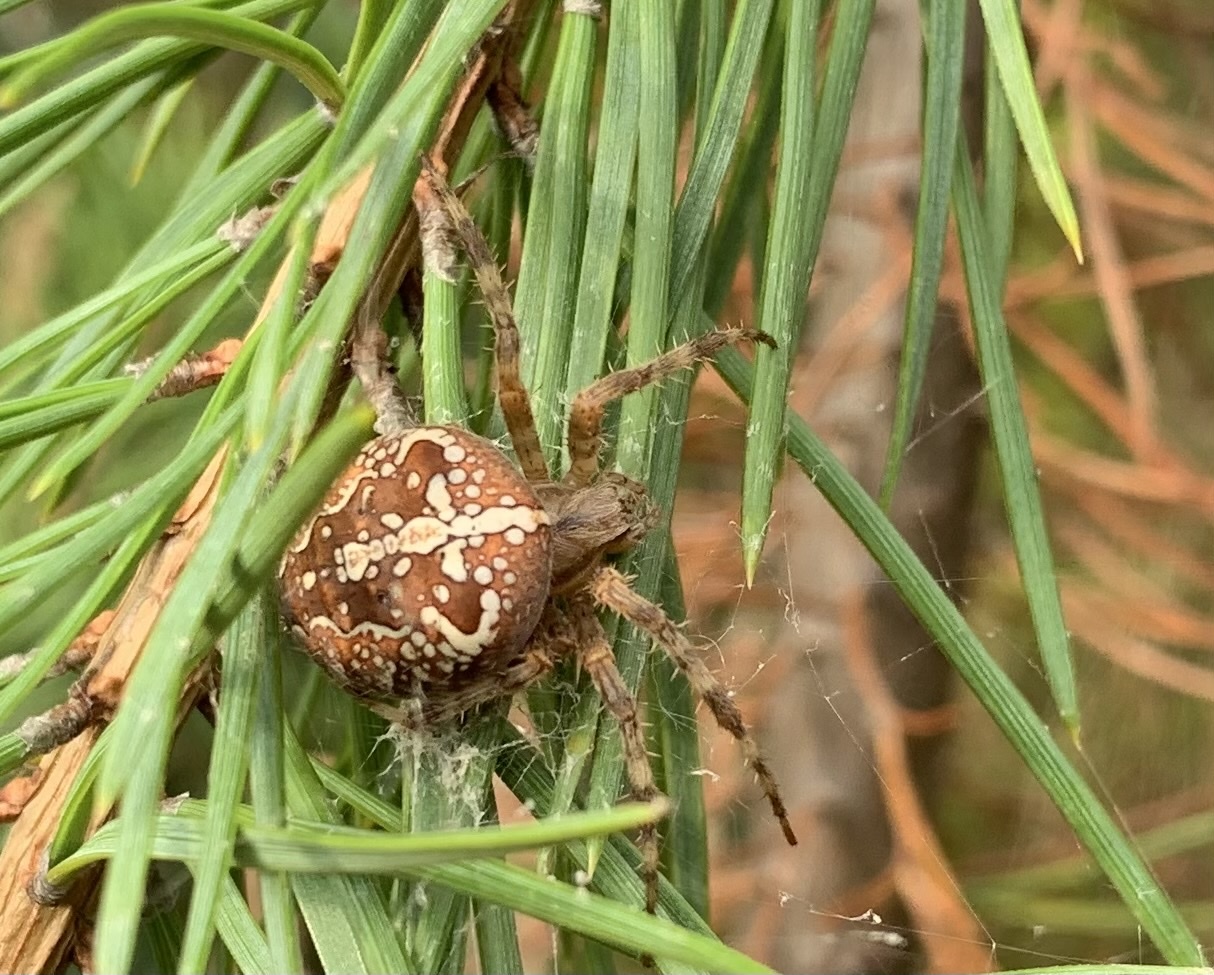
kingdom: Animalia
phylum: Arthropoda
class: Arachnida
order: Araneae
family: Araneidae
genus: Araneus
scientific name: Araneus diadematus
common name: Cross orbweaver
